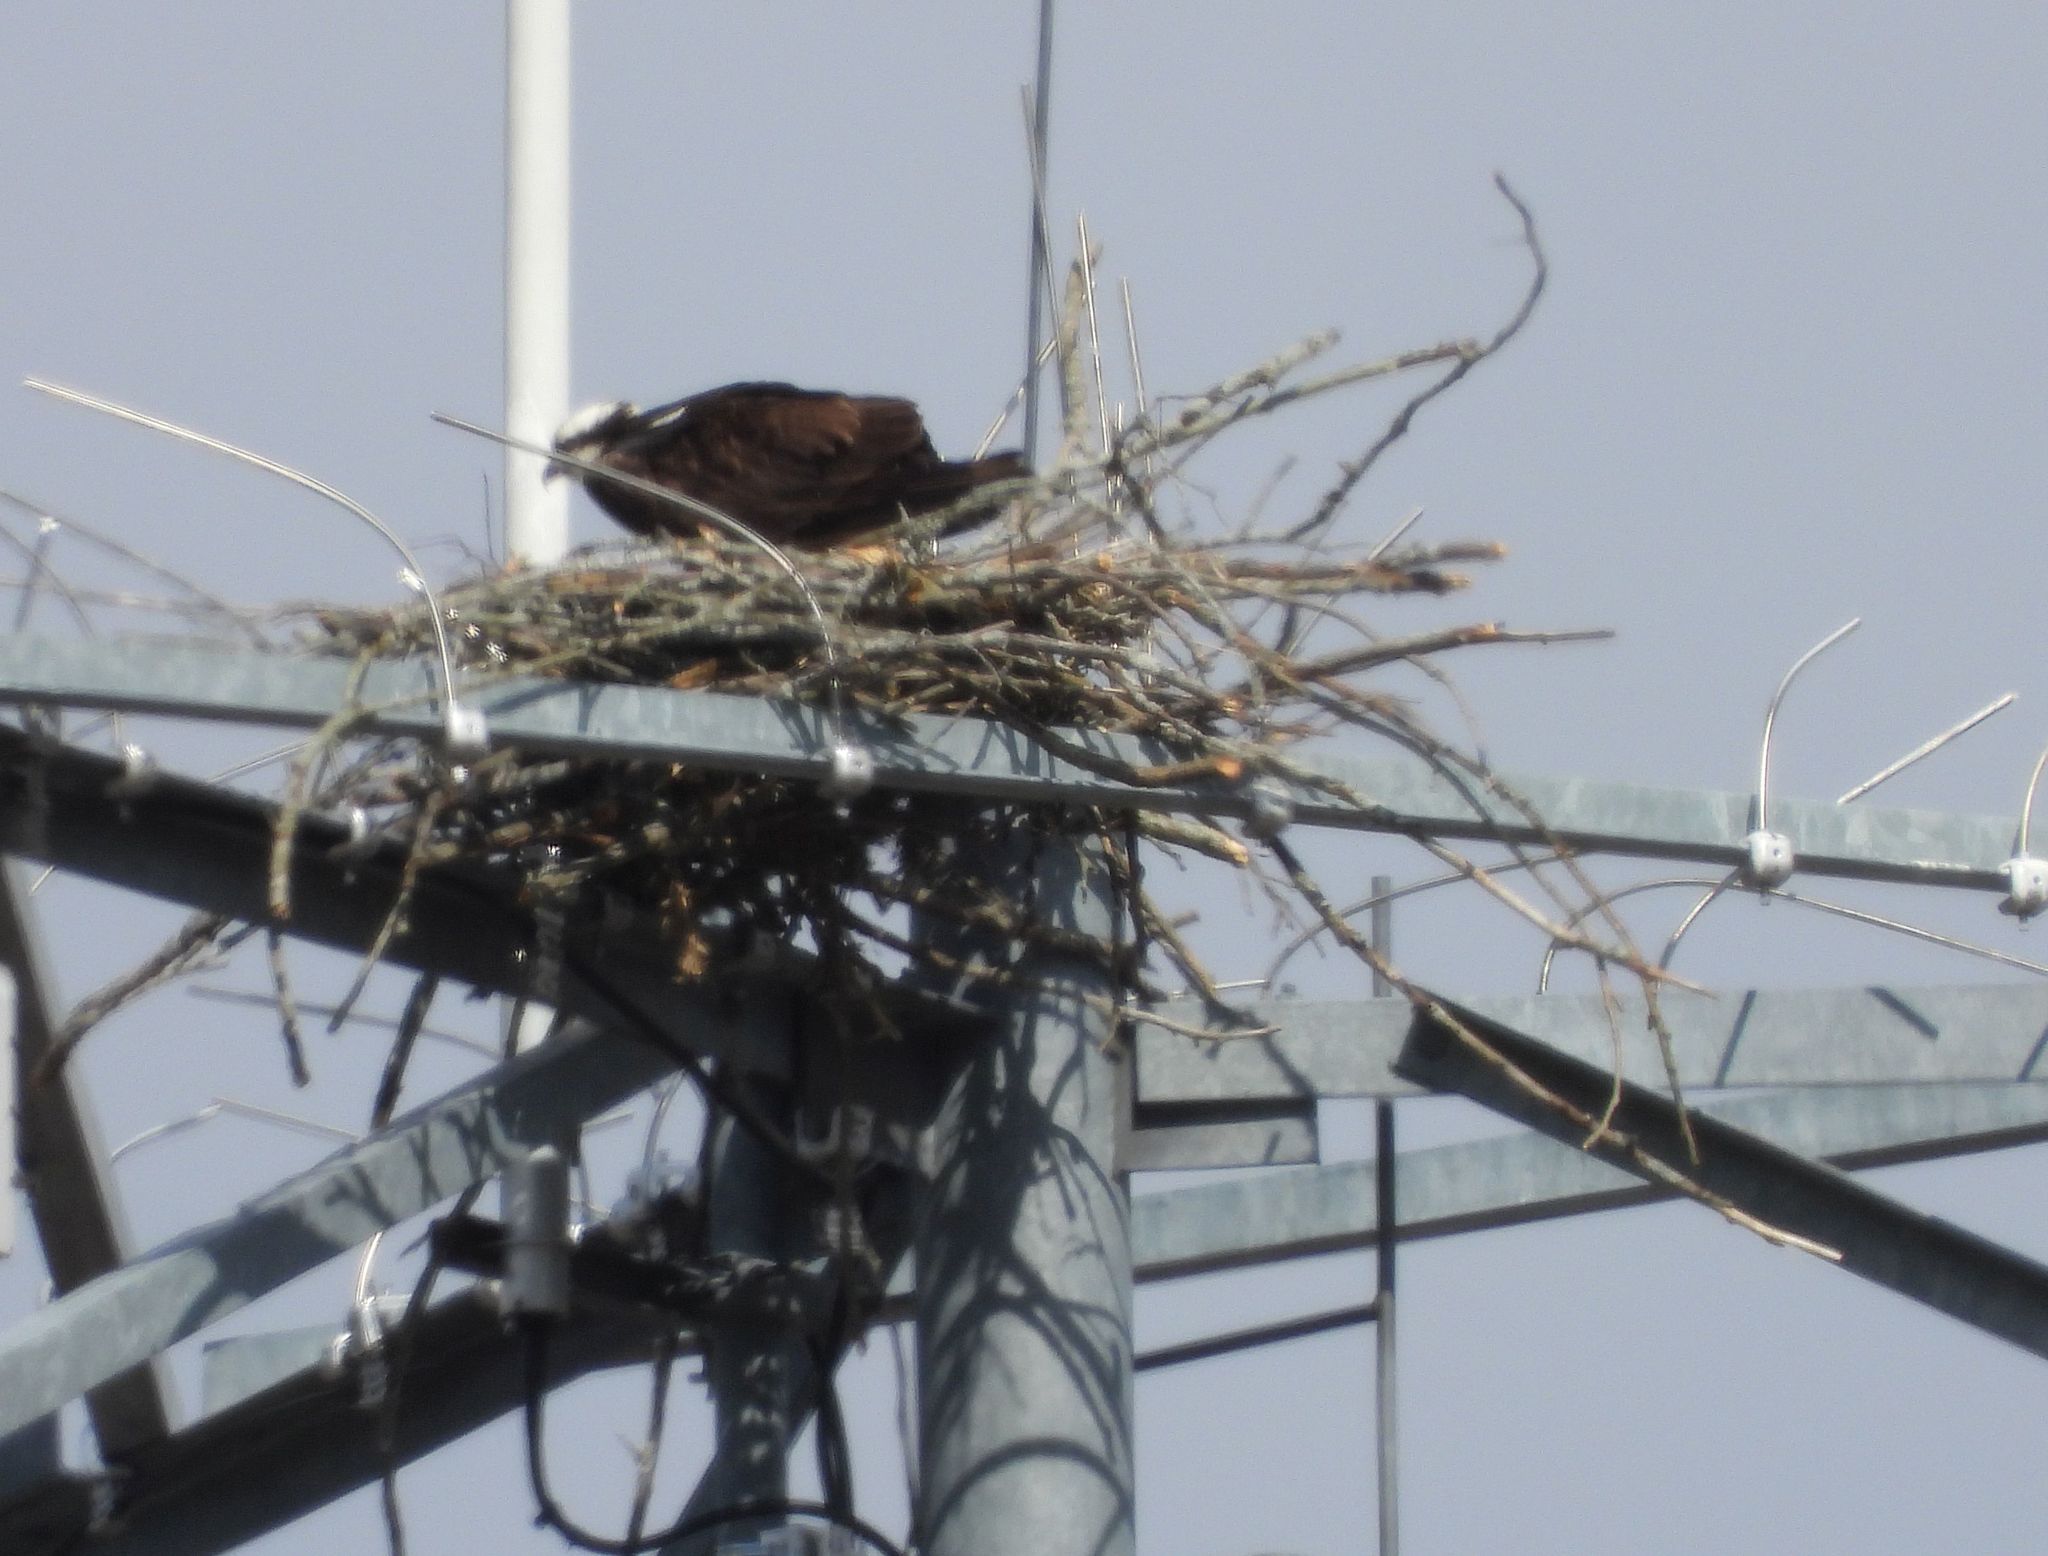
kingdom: Animalia
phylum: Chordata
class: Aves
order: Accipitriformes
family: Pandionidae
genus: Pandion
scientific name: Pandion haliaetus
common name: Osprey
